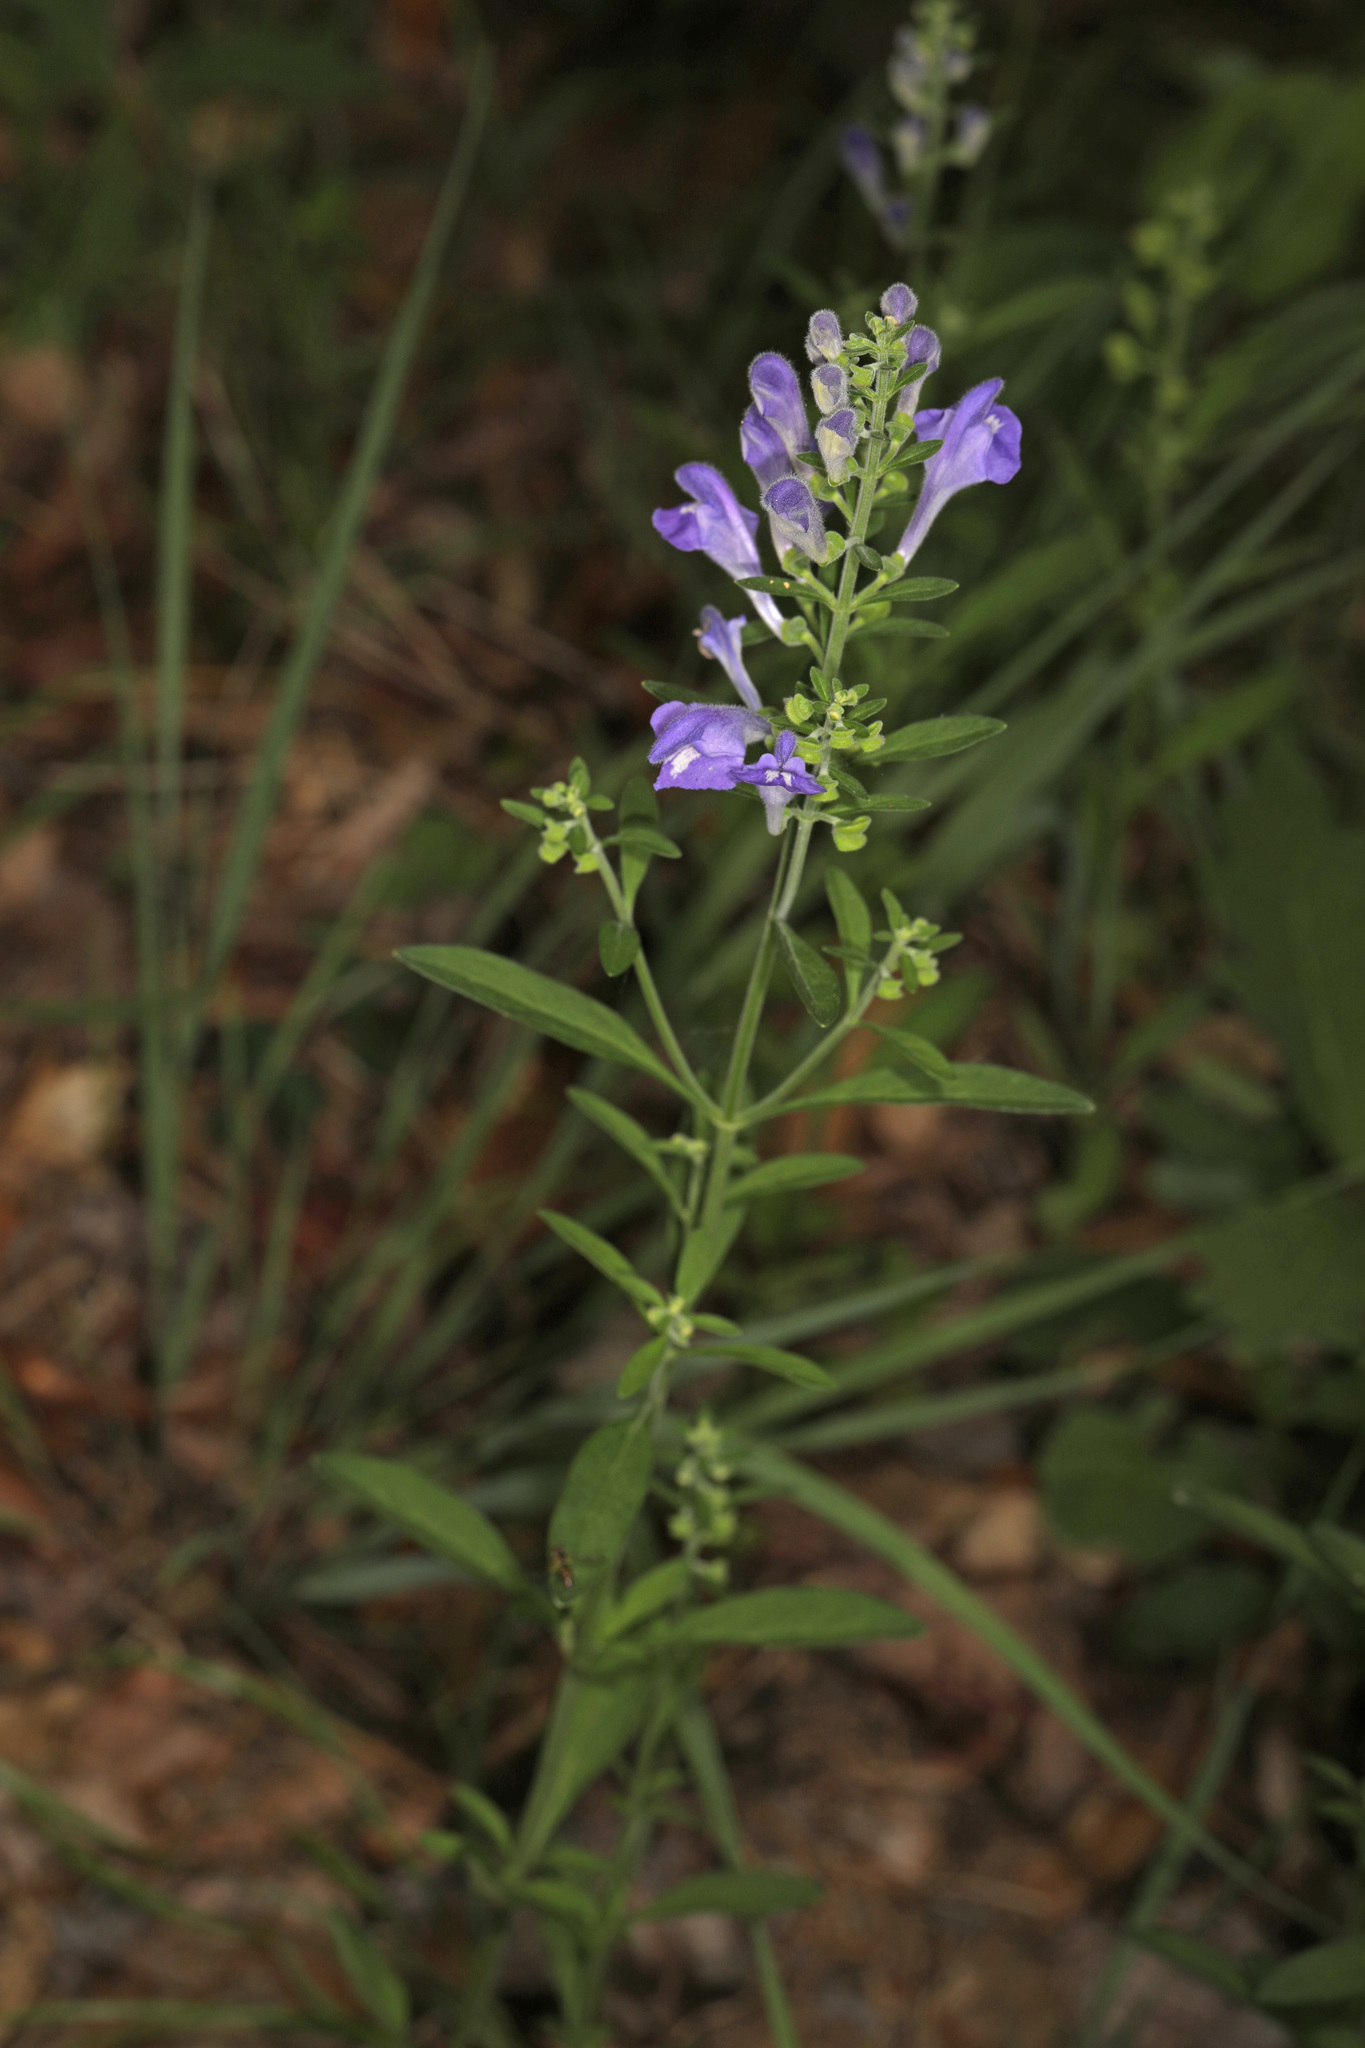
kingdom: Plantae
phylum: Tracheophyta
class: Magnoliopsida
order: Lamiales
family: Lamiaceae
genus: Scutellaria
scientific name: Scutellaria integrifolia
